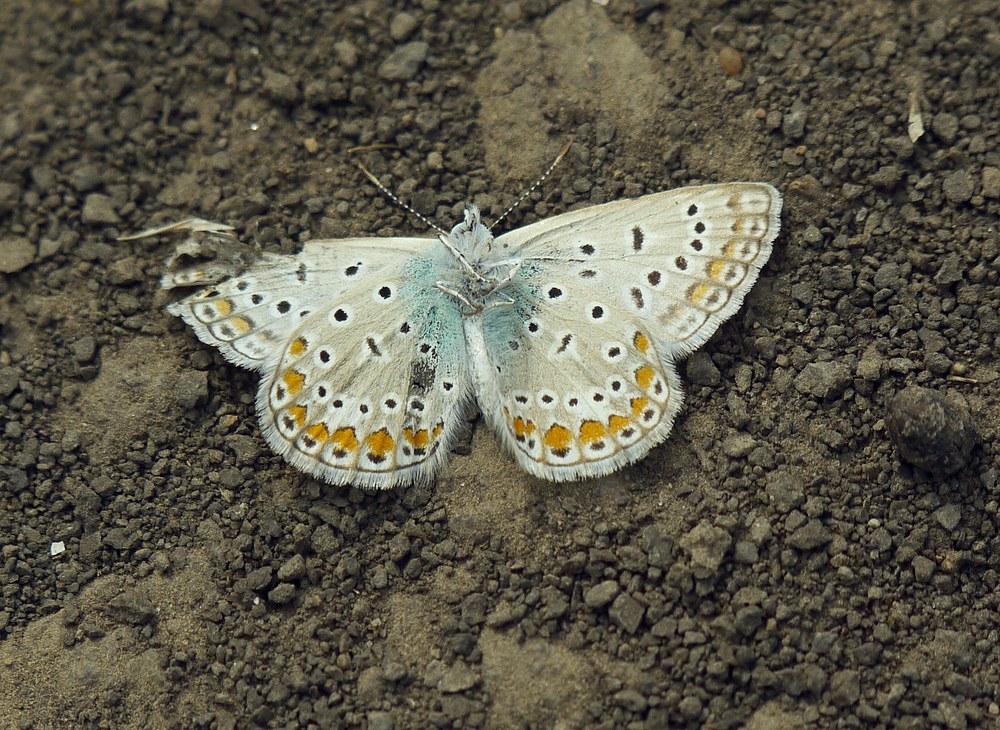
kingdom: Animalia
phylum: Arthropoda
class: Insecta
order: Lepidoptera
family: Lycaenidae
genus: Polyommatus
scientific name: Polyommatus icarus
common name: Common blue
